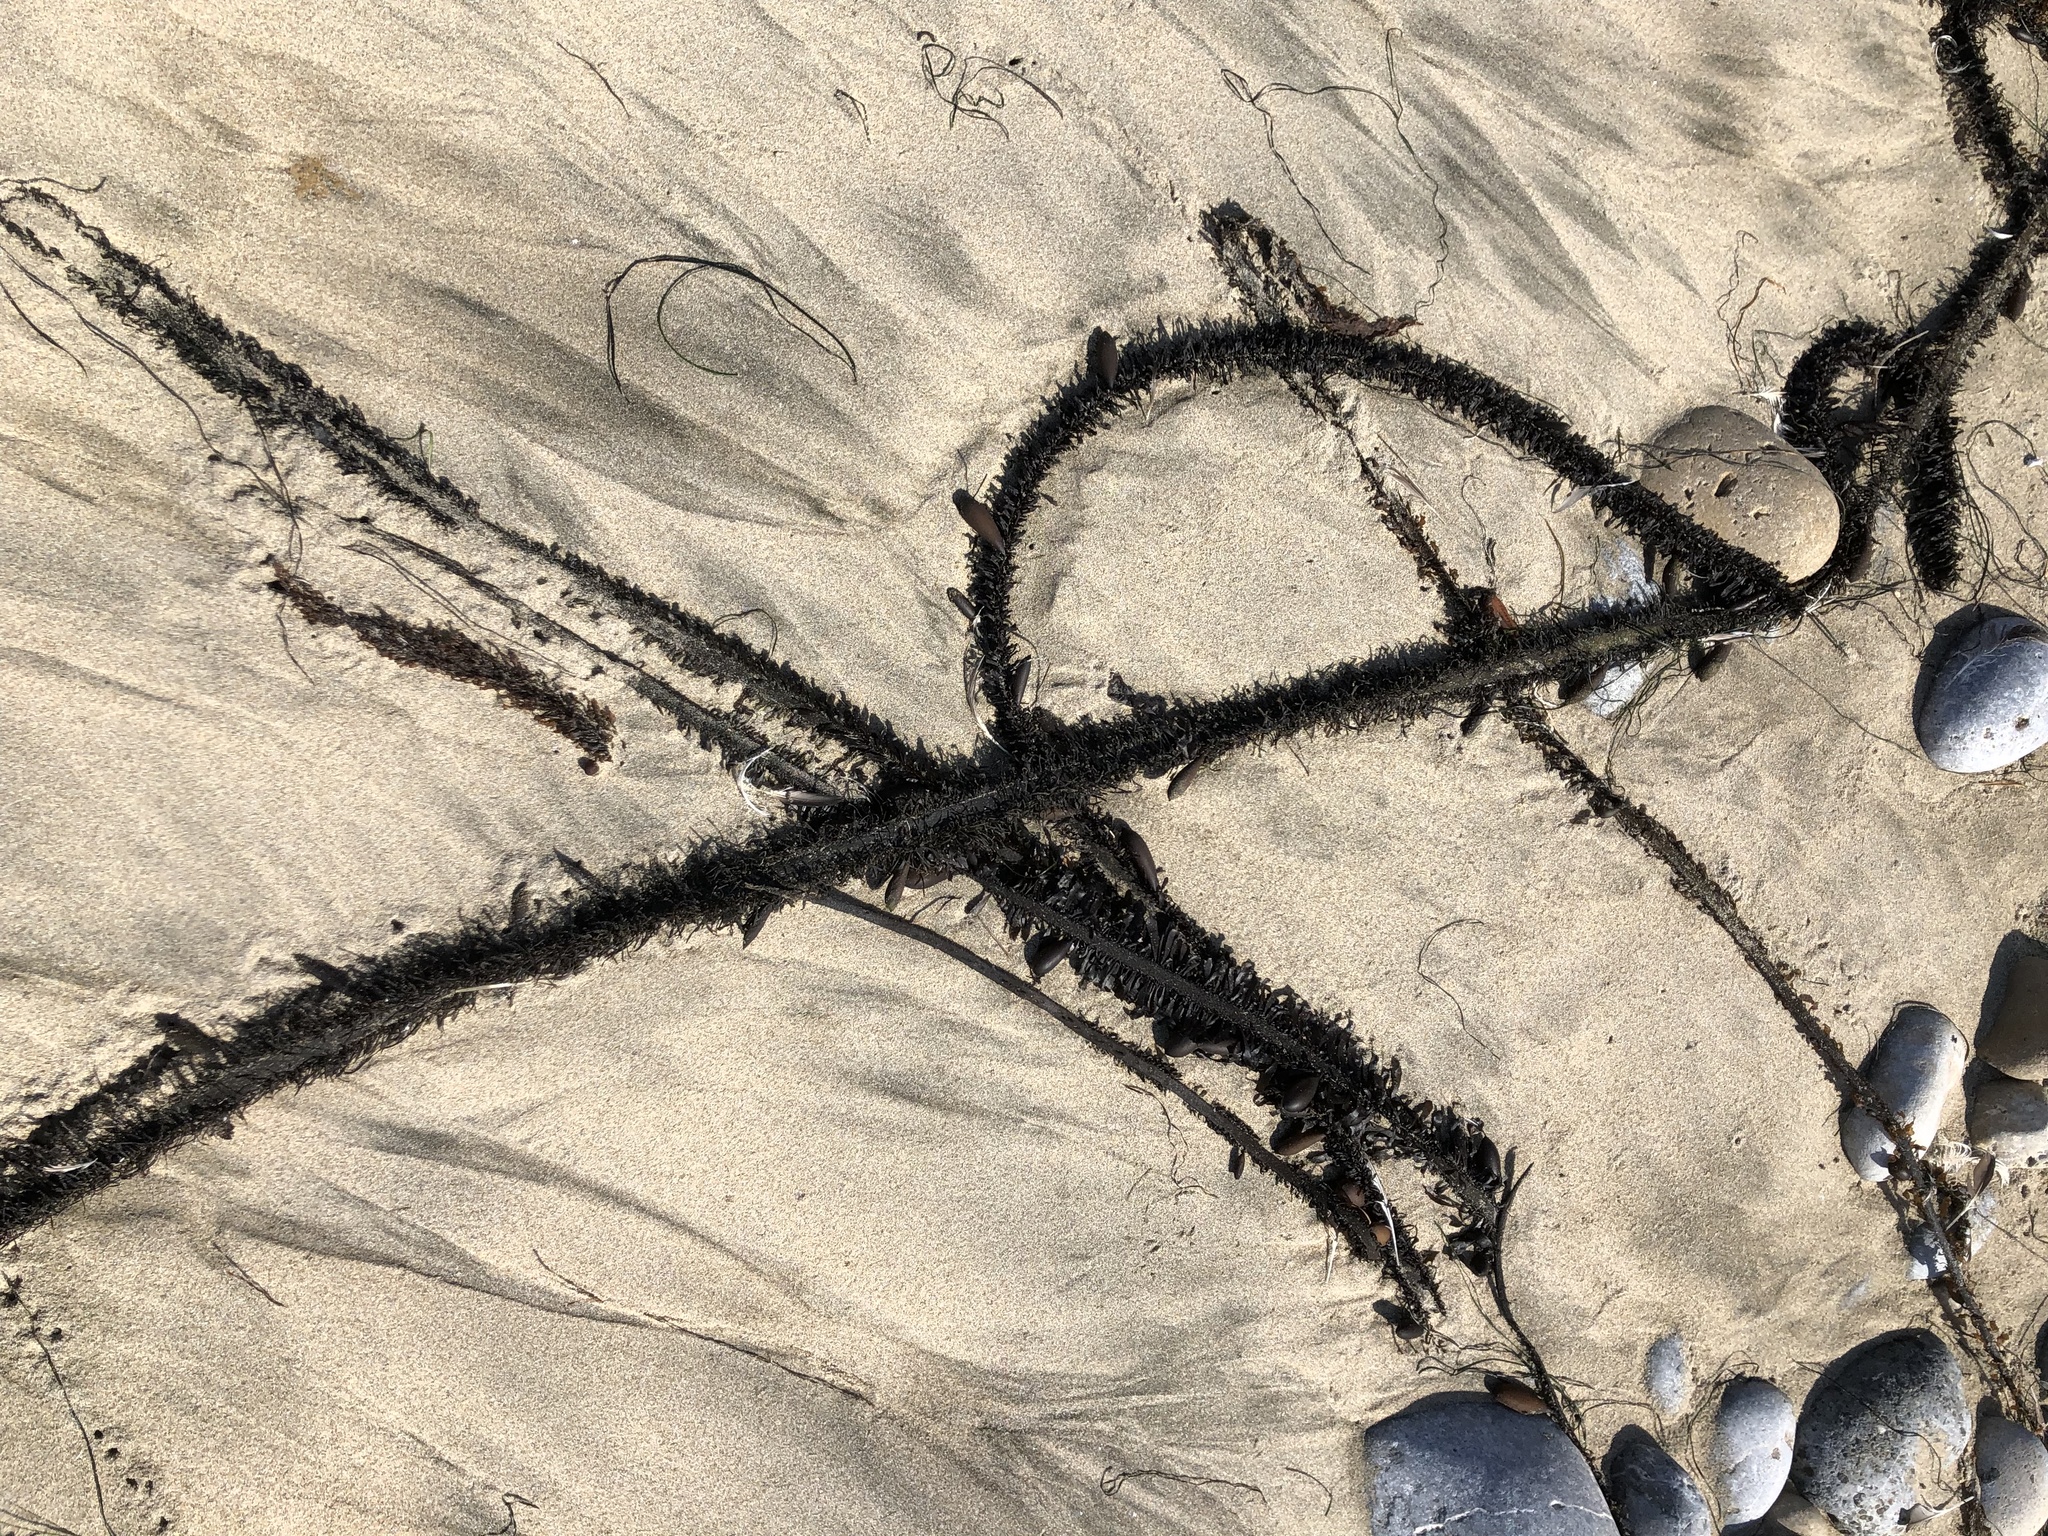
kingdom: Chromista
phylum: Ochrophyta
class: Phaeophyceae
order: Laminariales
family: Lessoniaceae
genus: Egregia
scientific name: Egregia menziesii
